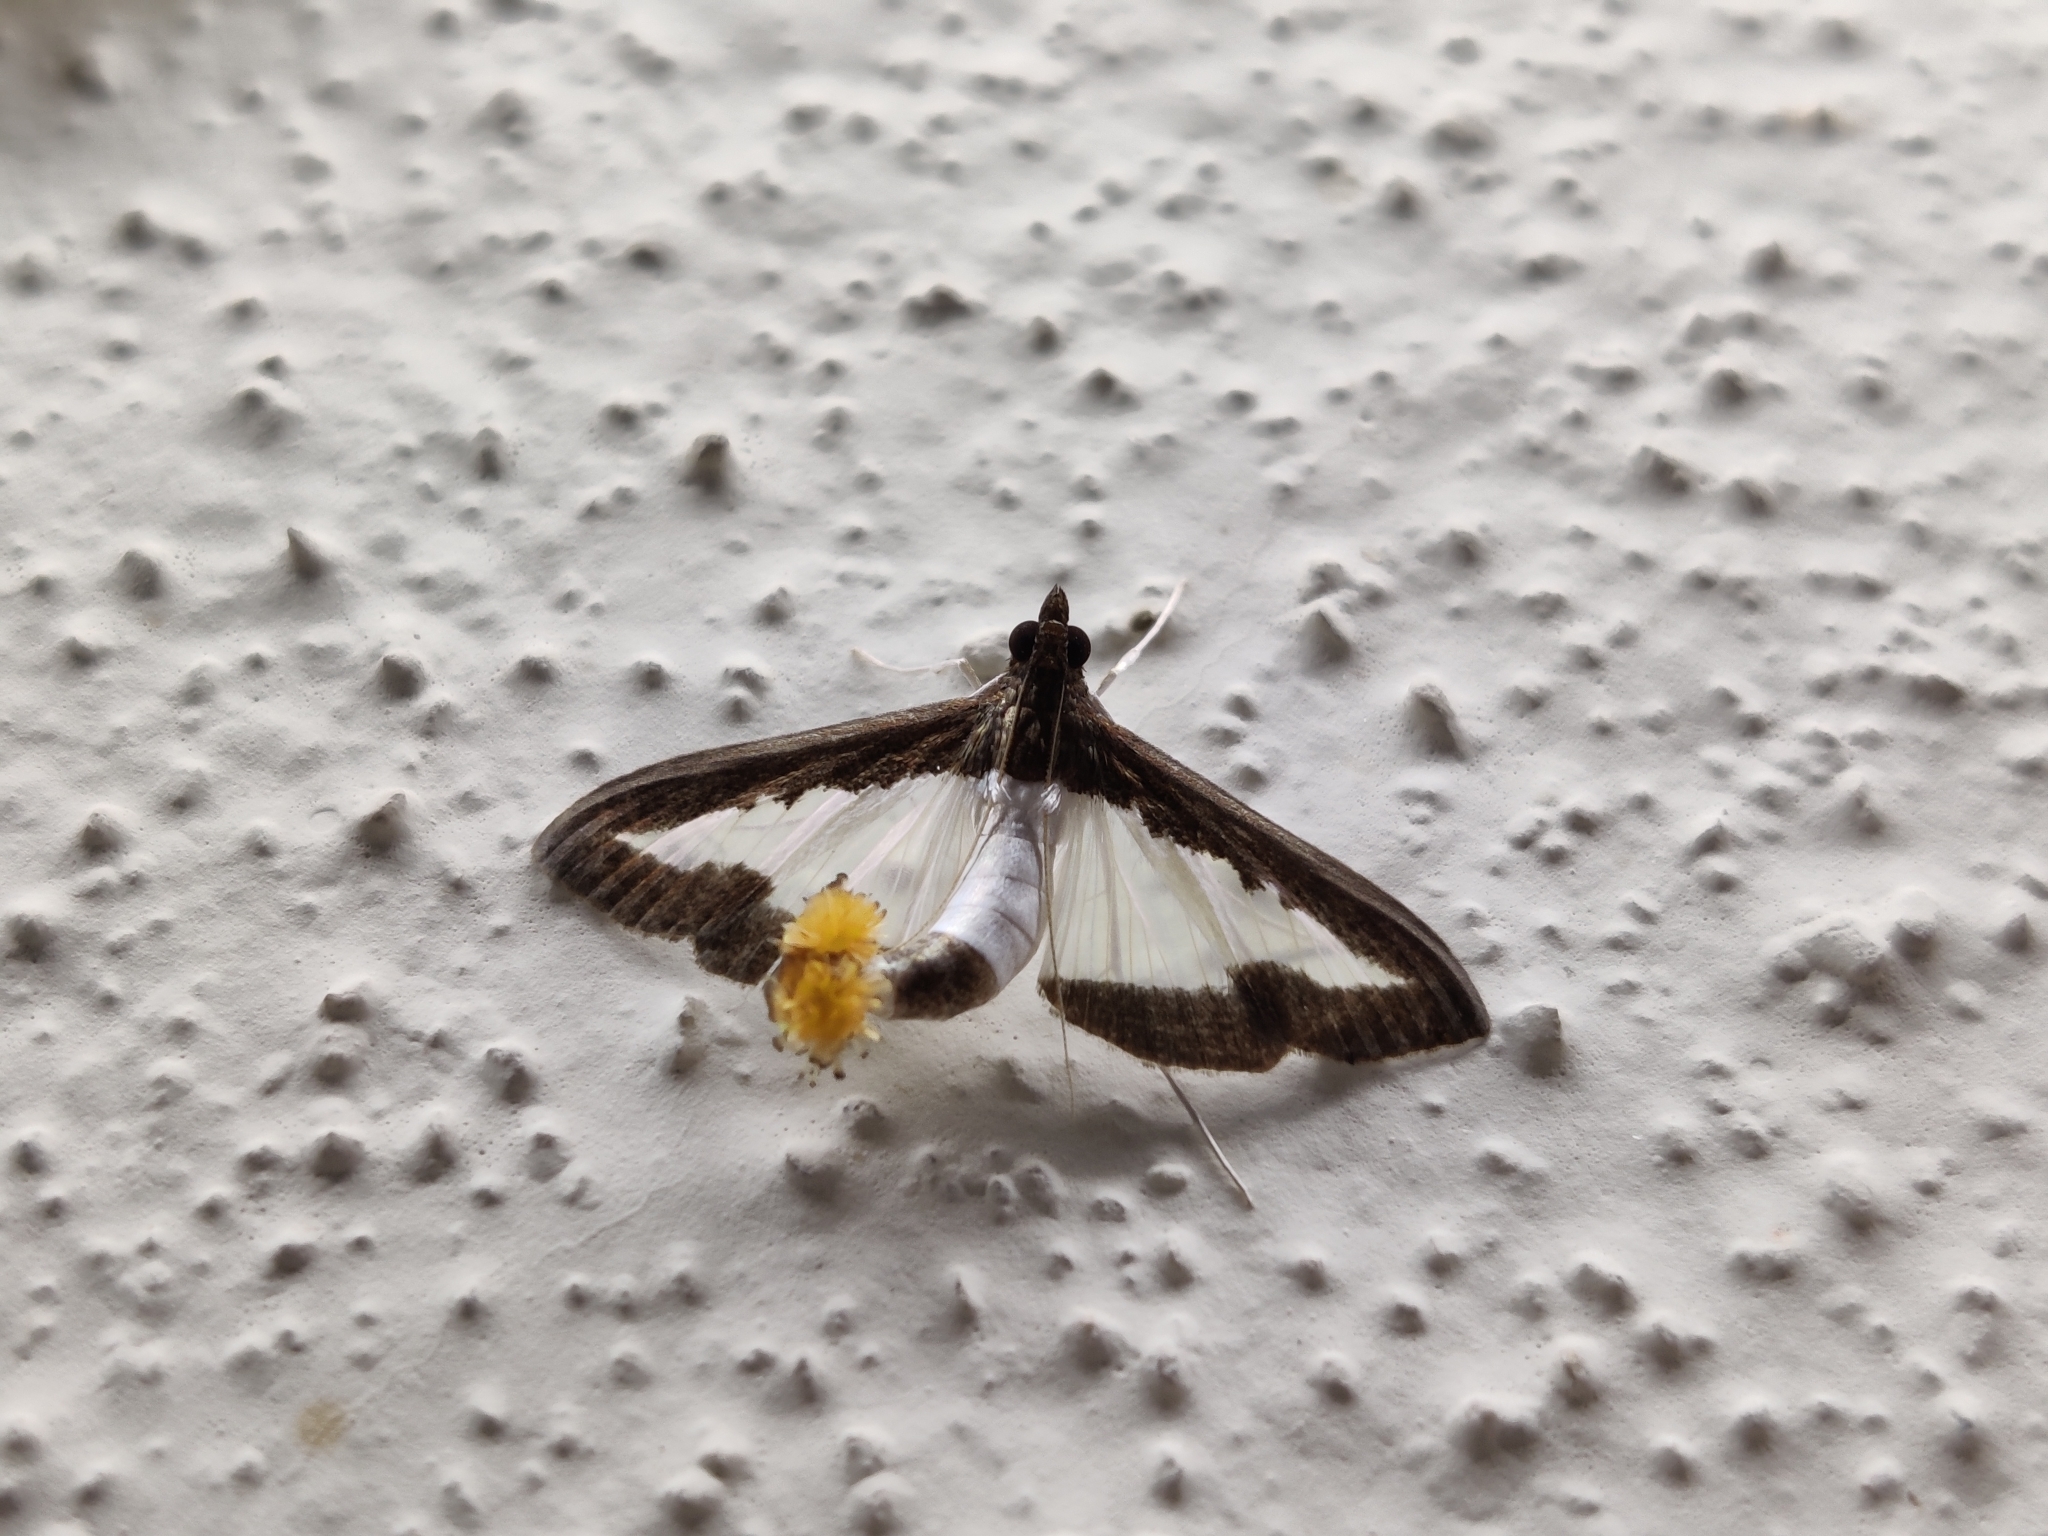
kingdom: Animalia
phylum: Arthropoda
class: Insecta
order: Lepidoptera
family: Crambidae
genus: Diaphania
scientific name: Diaphania indica
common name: Cucumber moth
